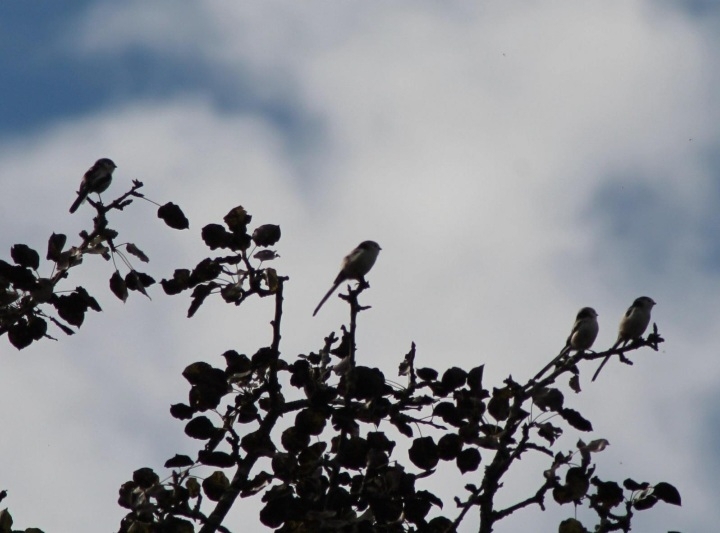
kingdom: Animalia
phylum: Chordata
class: Aves
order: Passeriformes
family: Aegithalidae
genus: Aegithalos
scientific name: Aegithalos caudatus
